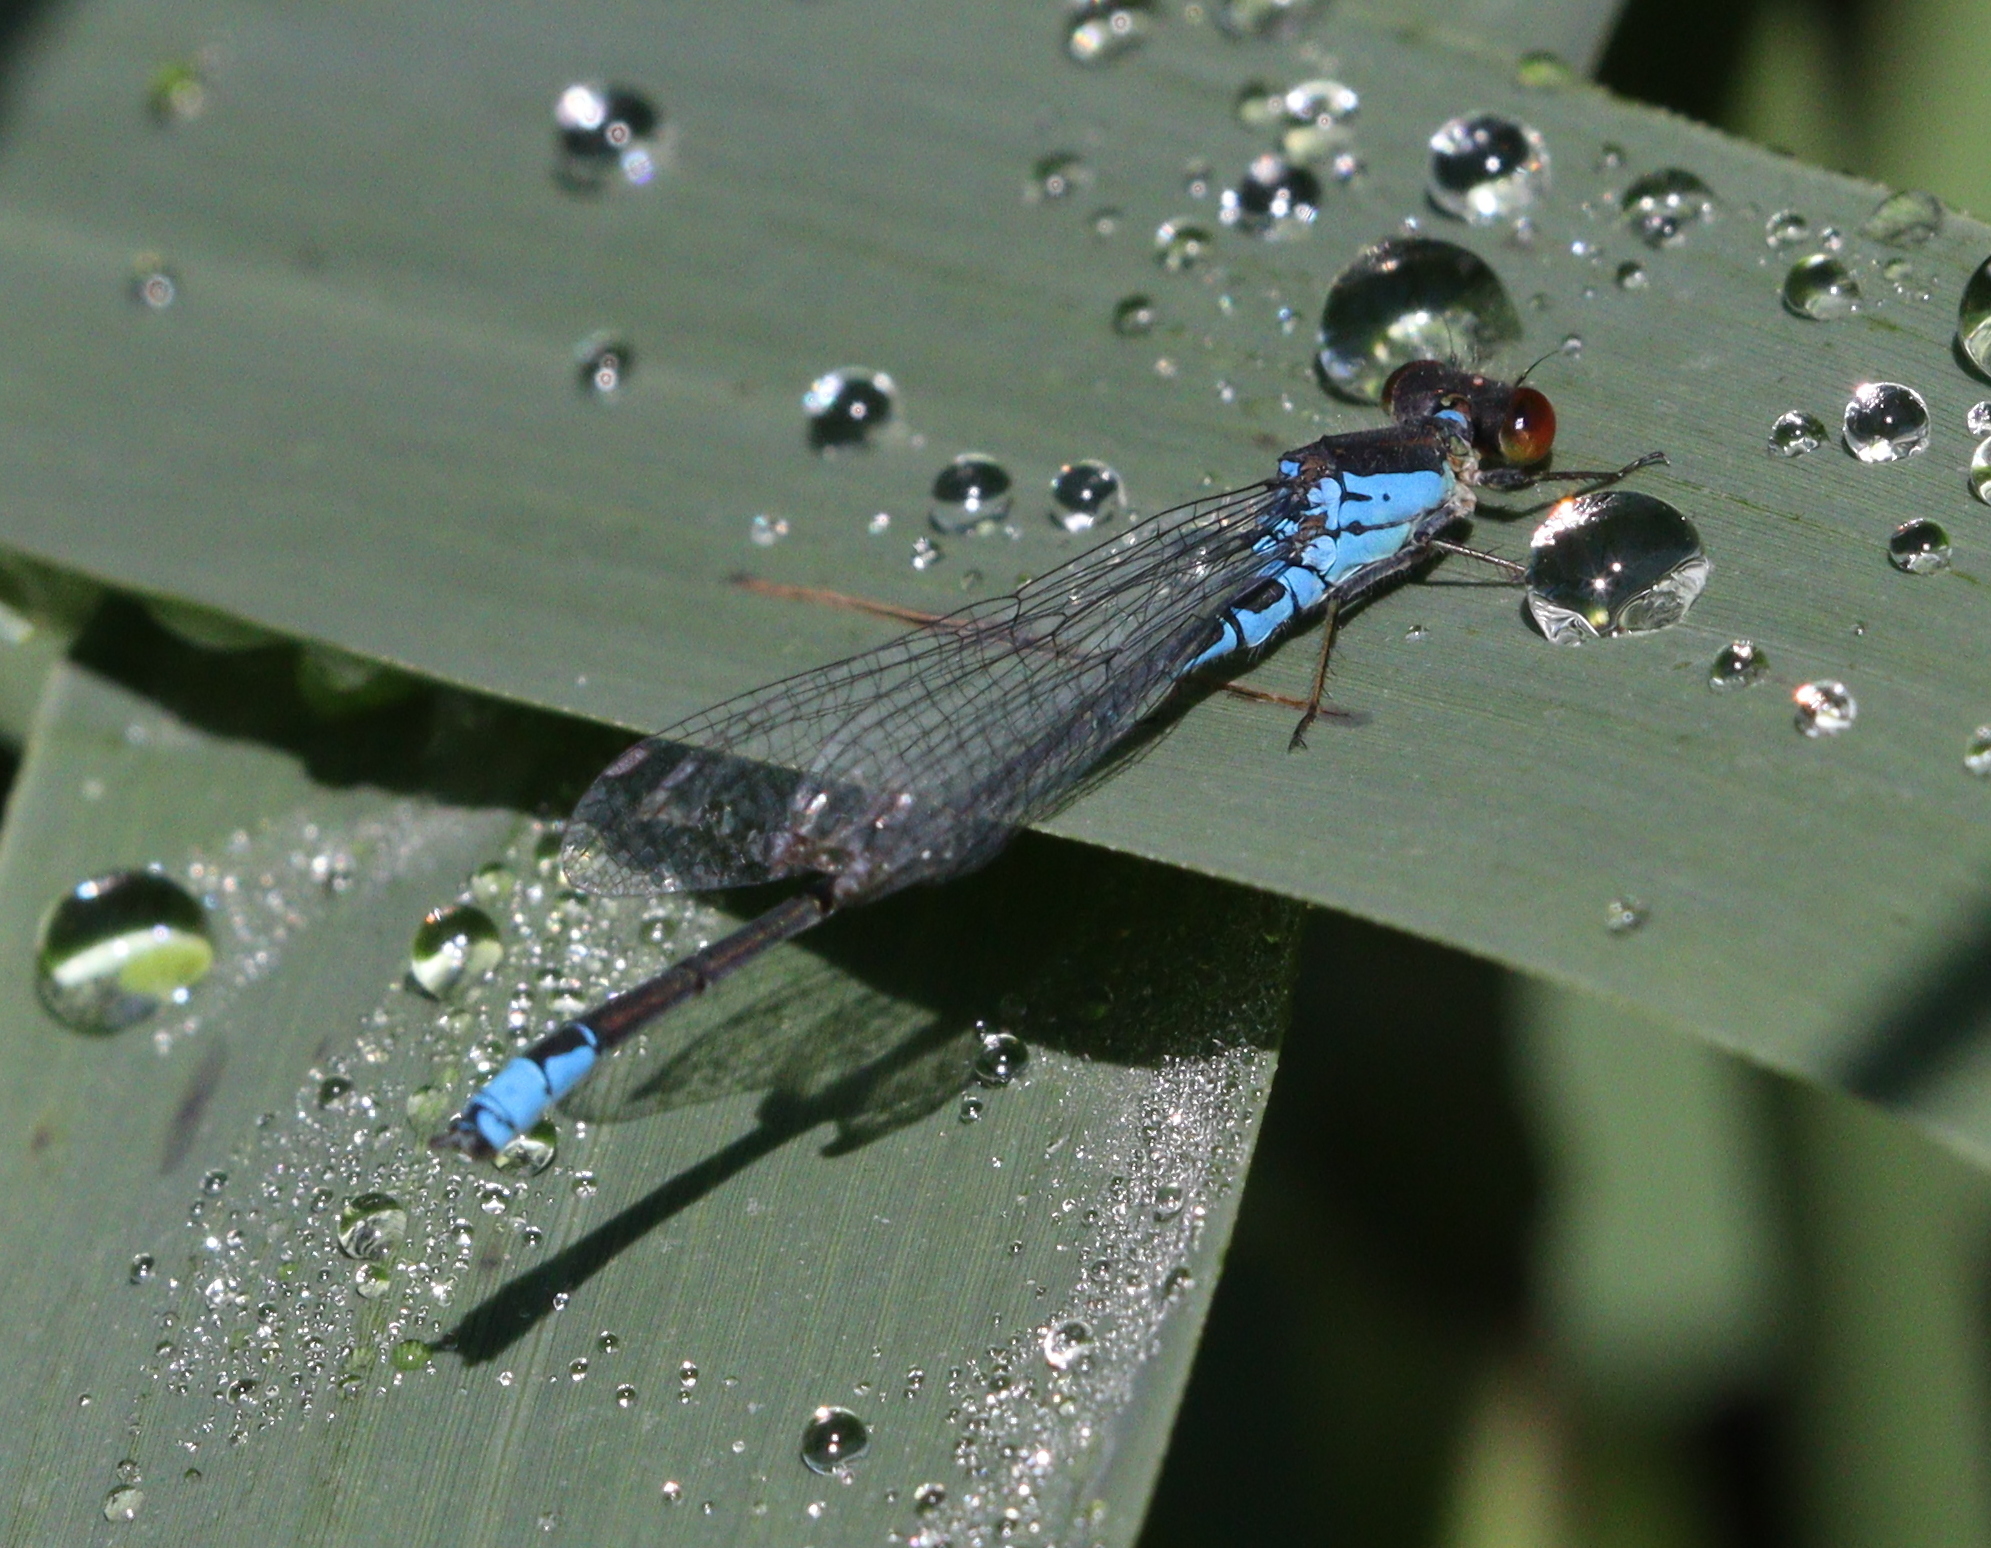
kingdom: Animalia
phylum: Arthropoda
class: Insecta
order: Odonata
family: Coenagrionidae
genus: Erythromma
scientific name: Erythromma viridulum
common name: Small red-eyed damselfly
